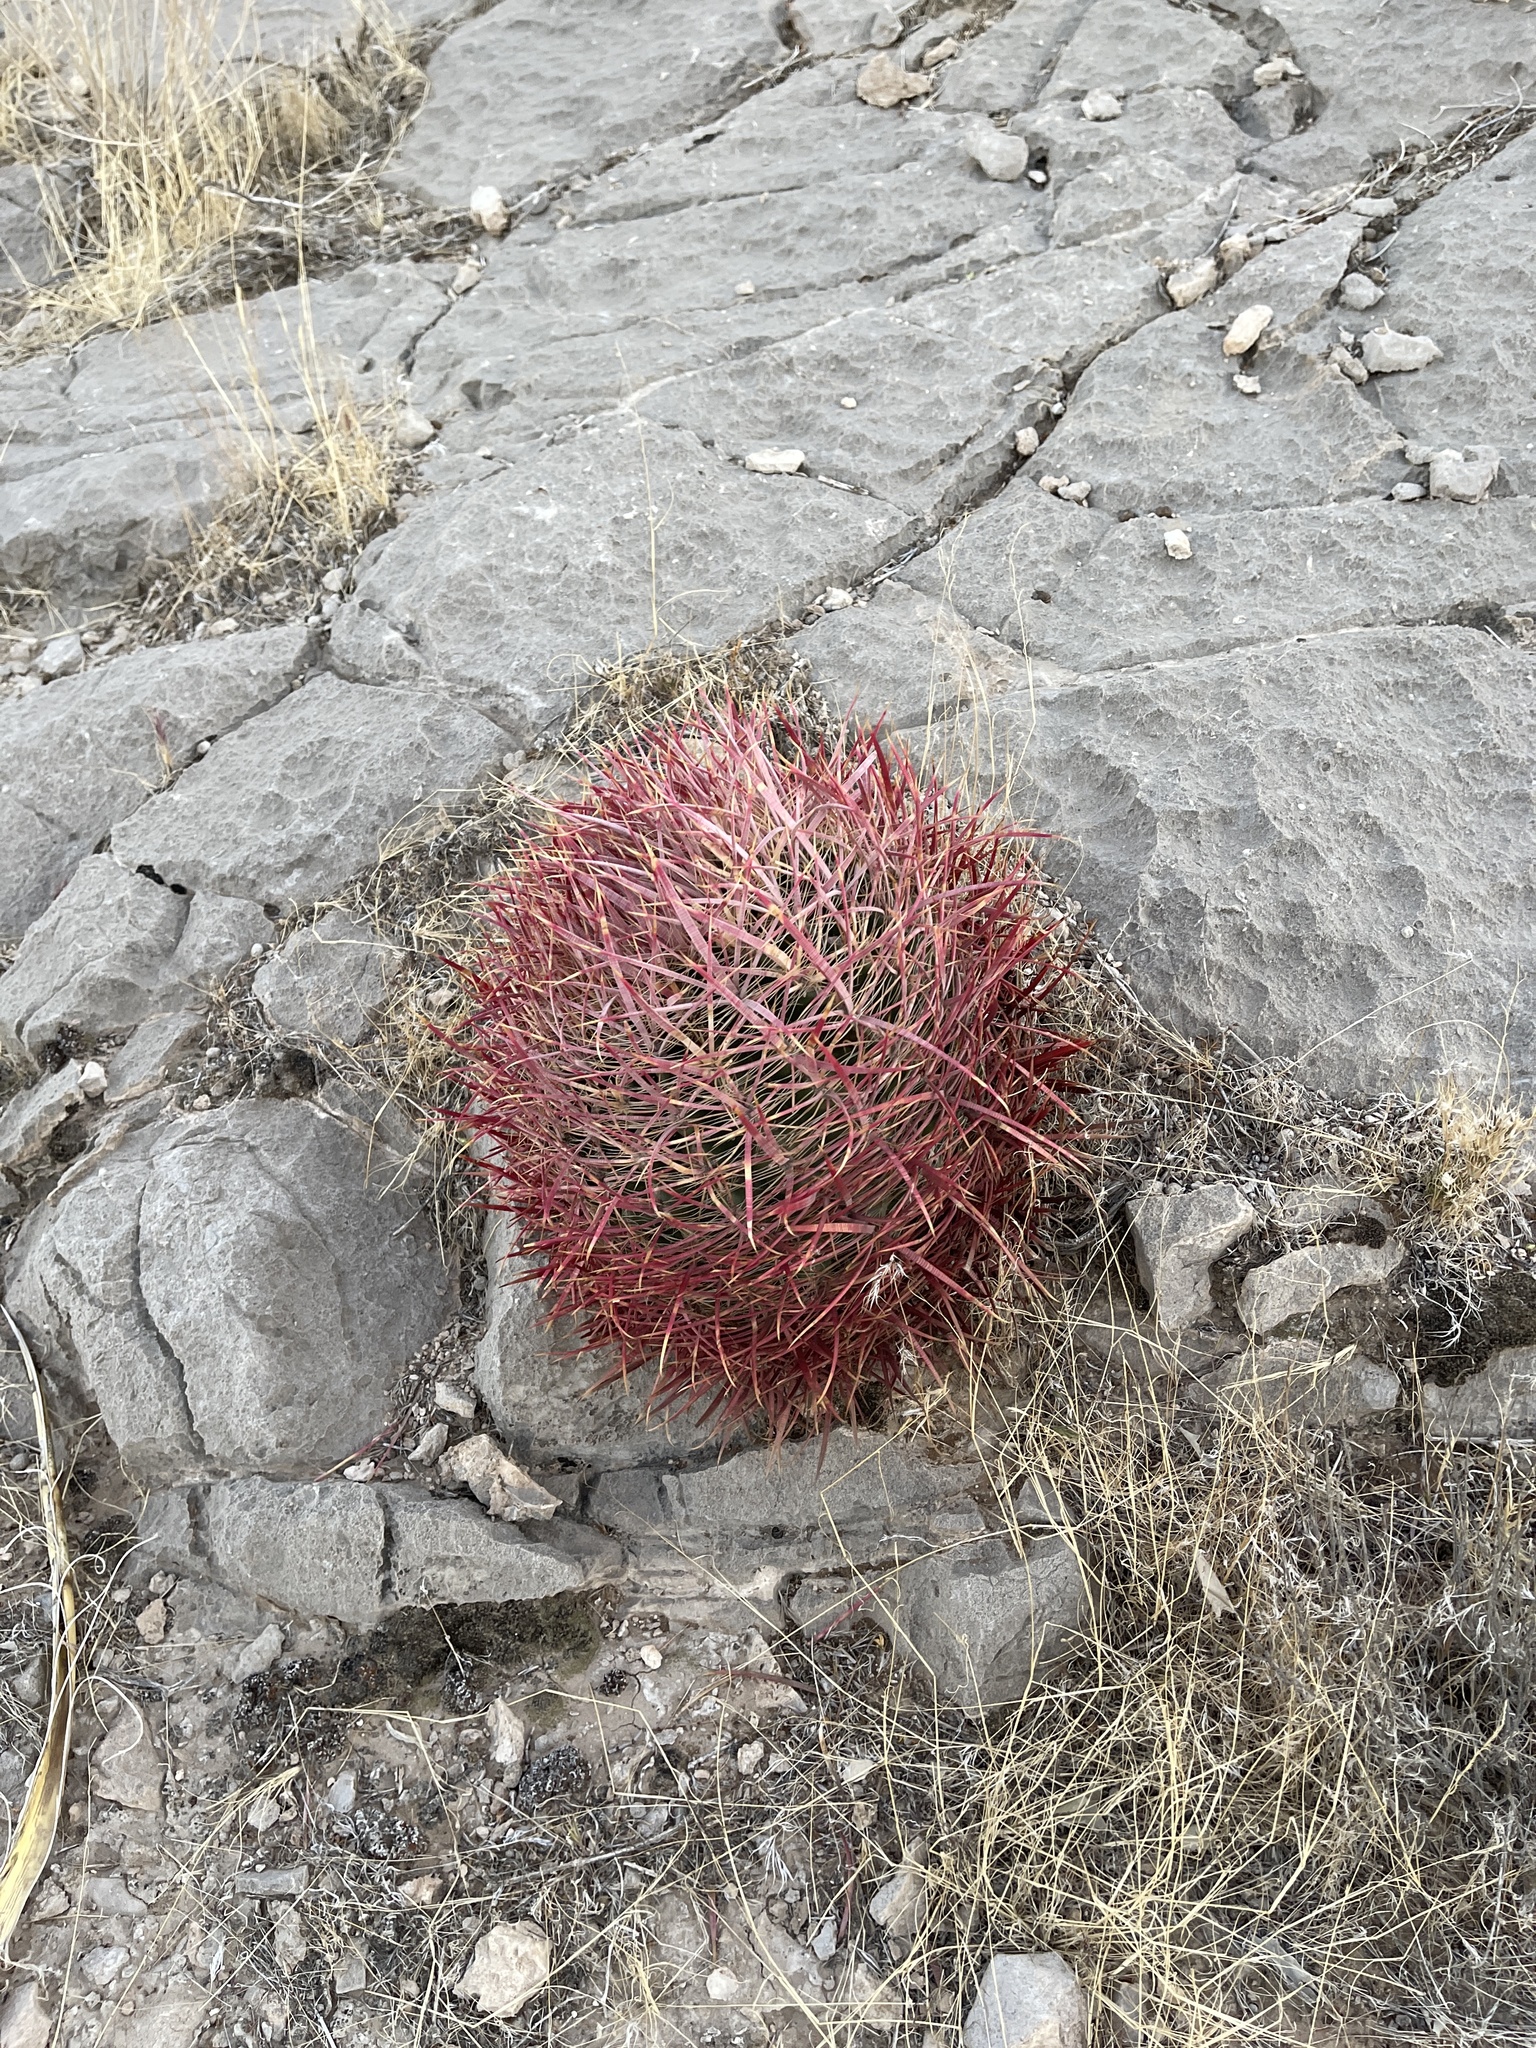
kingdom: Plantae
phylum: Tracheophyta
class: Magnoliopsida
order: Caryophyllales
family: Cactaceae
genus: Ferocactus
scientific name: Ferocactus cylindraceus
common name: California barrel cactus
